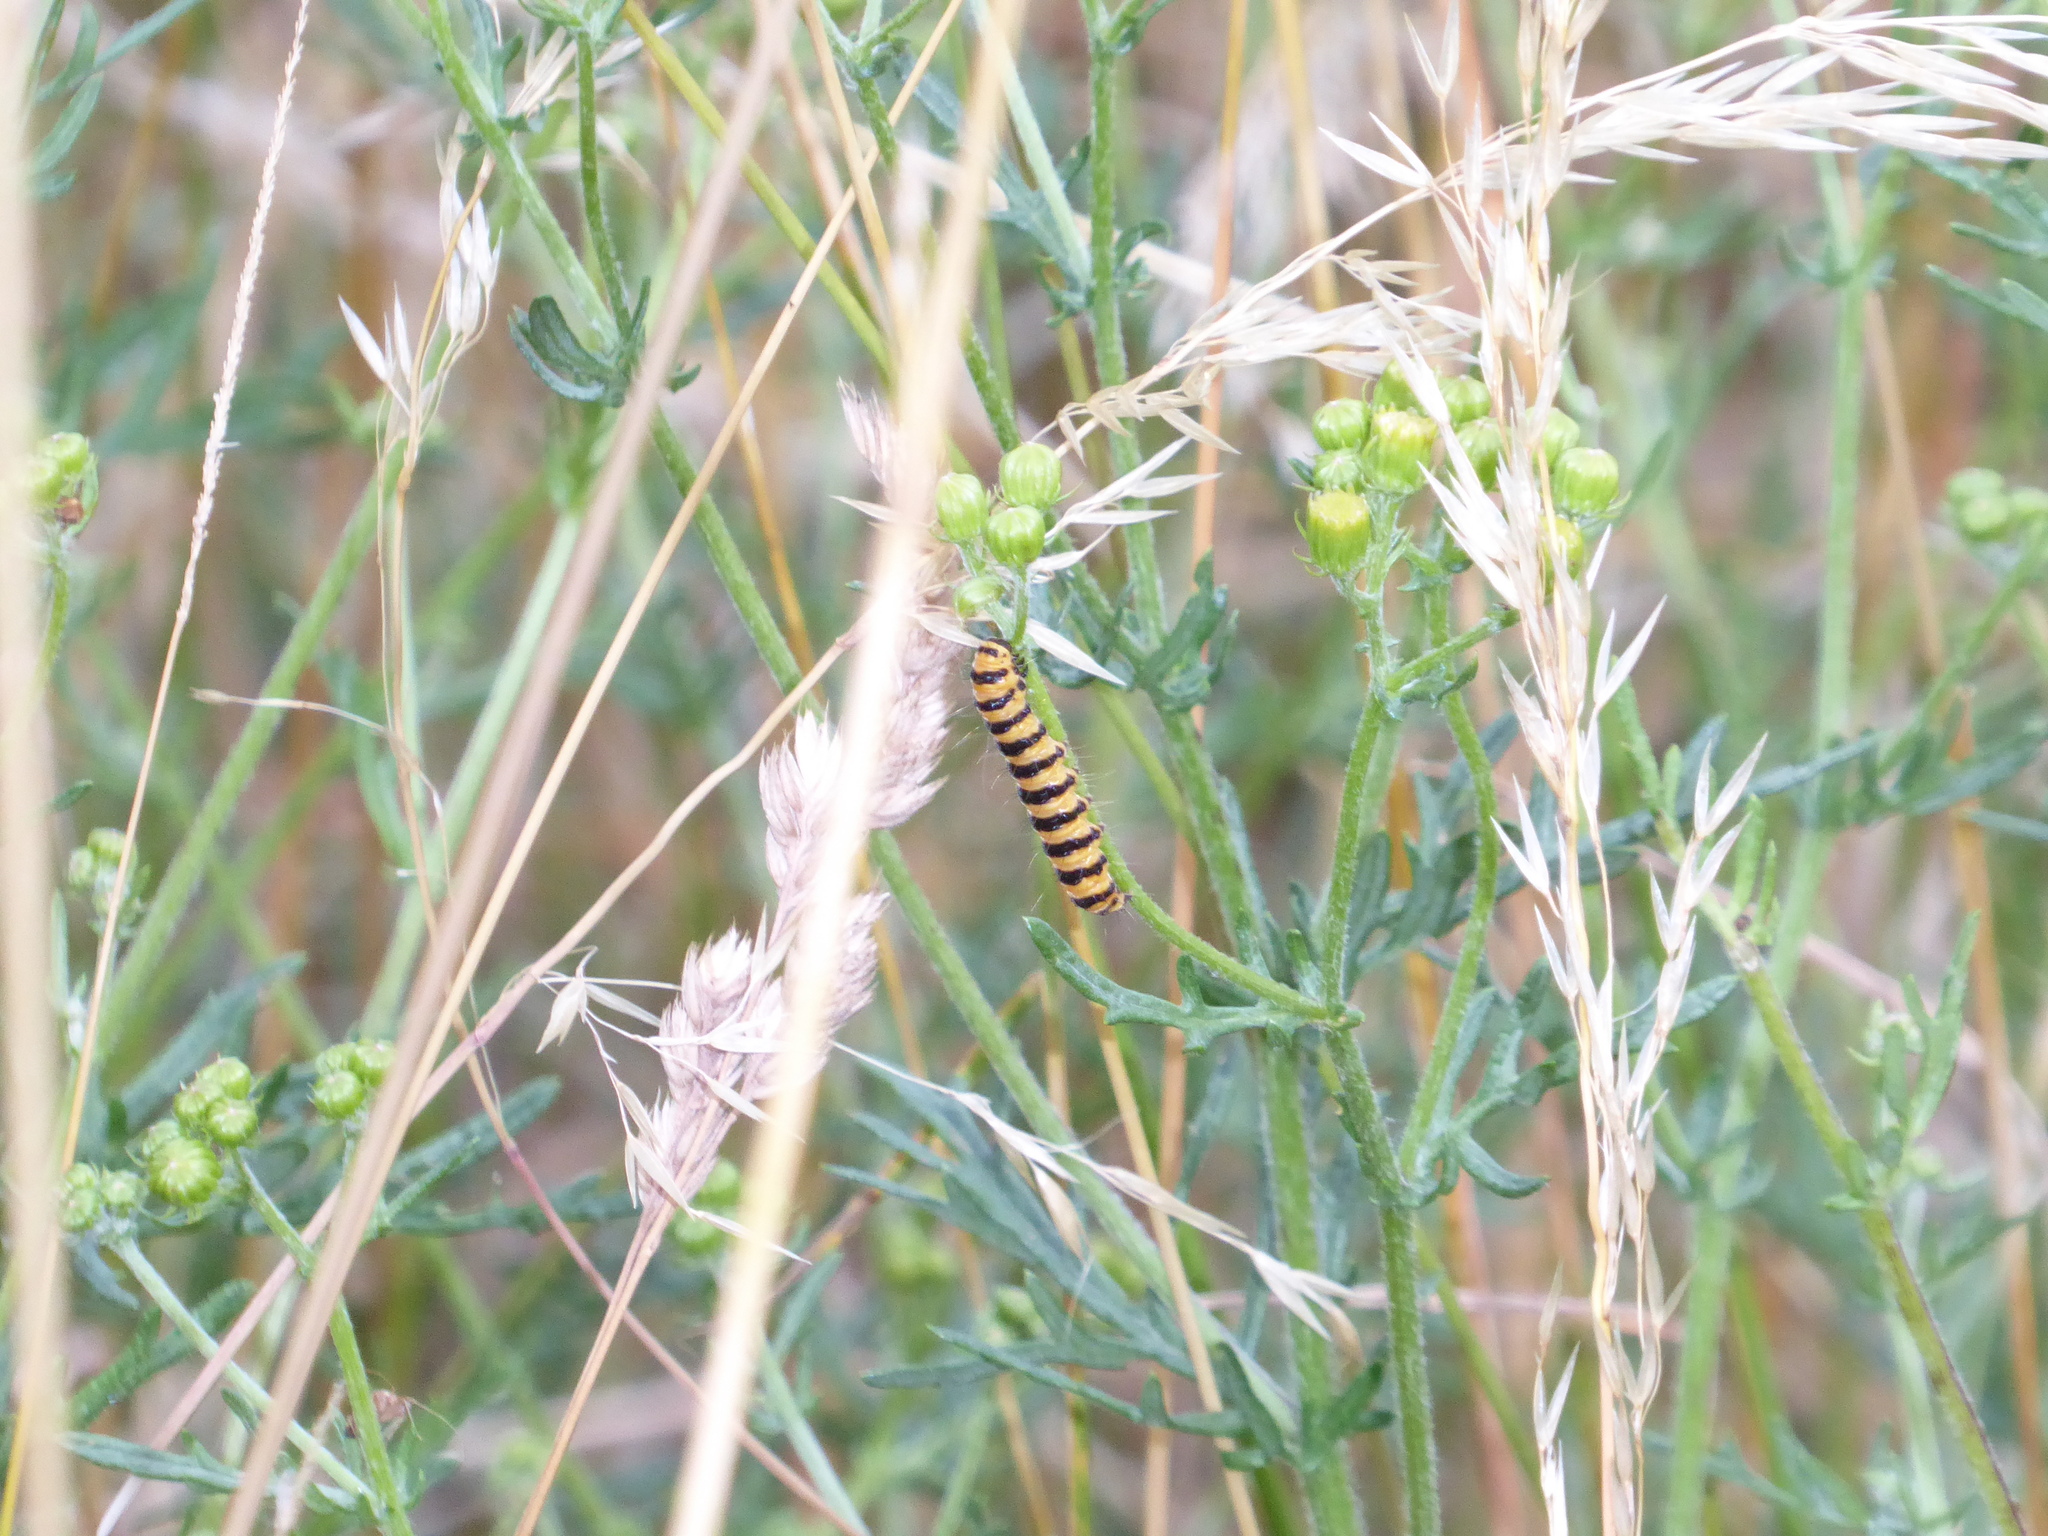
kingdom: Animalia
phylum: Arthropoda
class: Insecta
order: Lepidoptera
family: Erebidae
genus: Tyria
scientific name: Tyria jacobaeae
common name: Cinnabar
